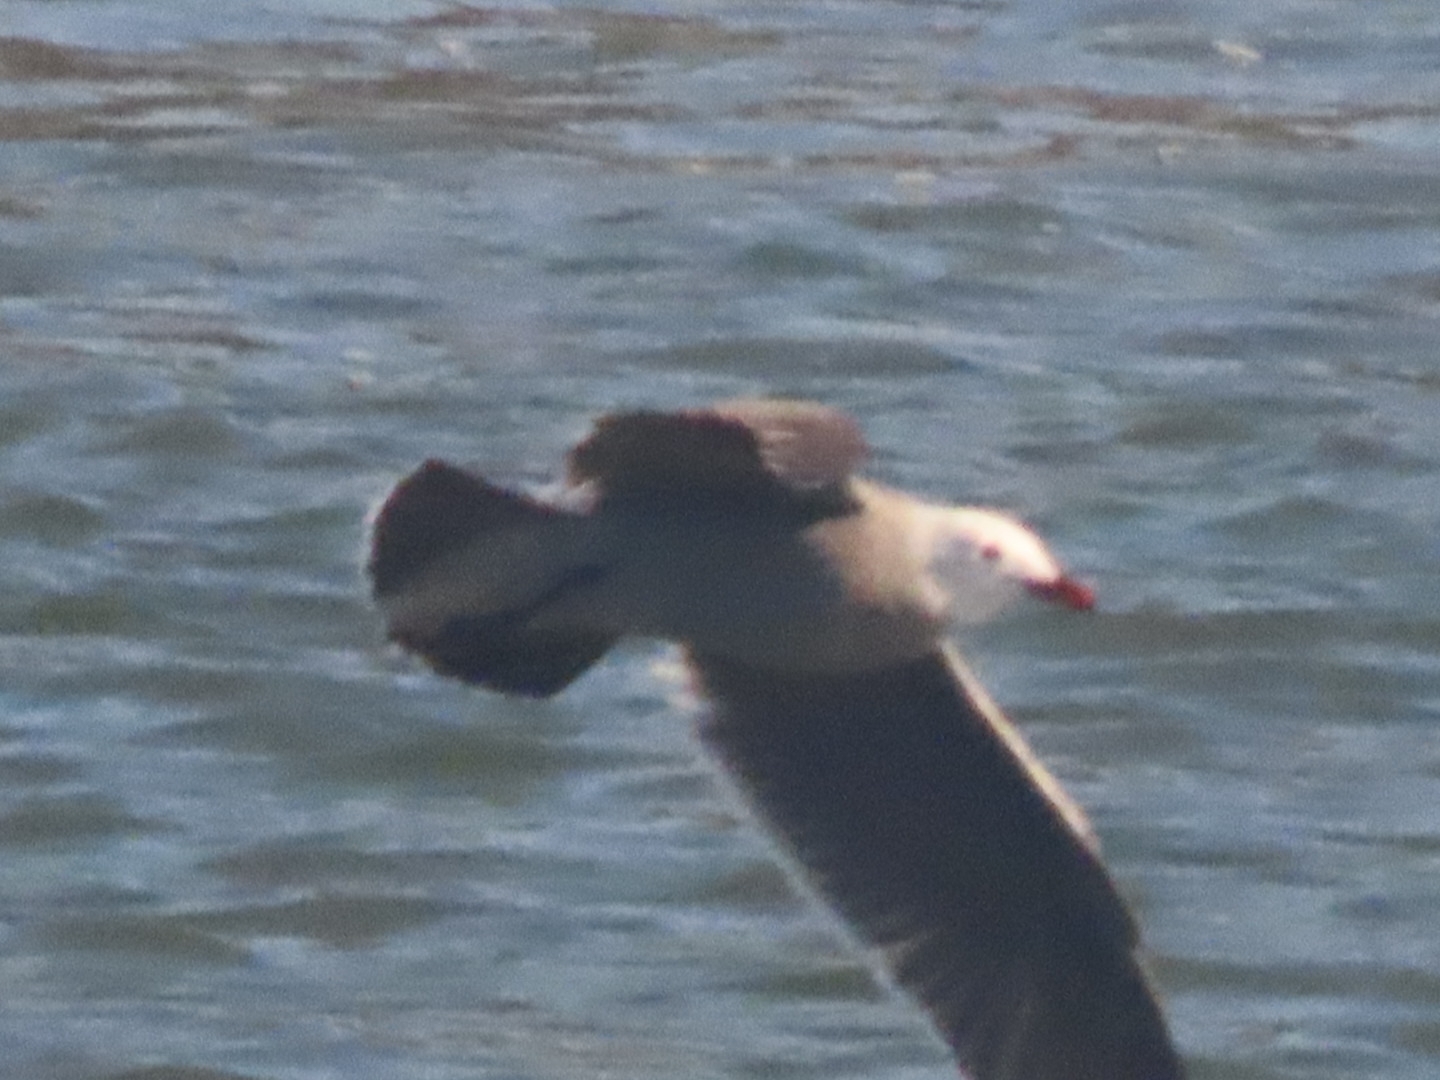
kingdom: Animalia
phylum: Chordata
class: Aves
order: Charadriiformes
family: Laridae
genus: Larus
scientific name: Larus heermanni
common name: Heermann's gull
